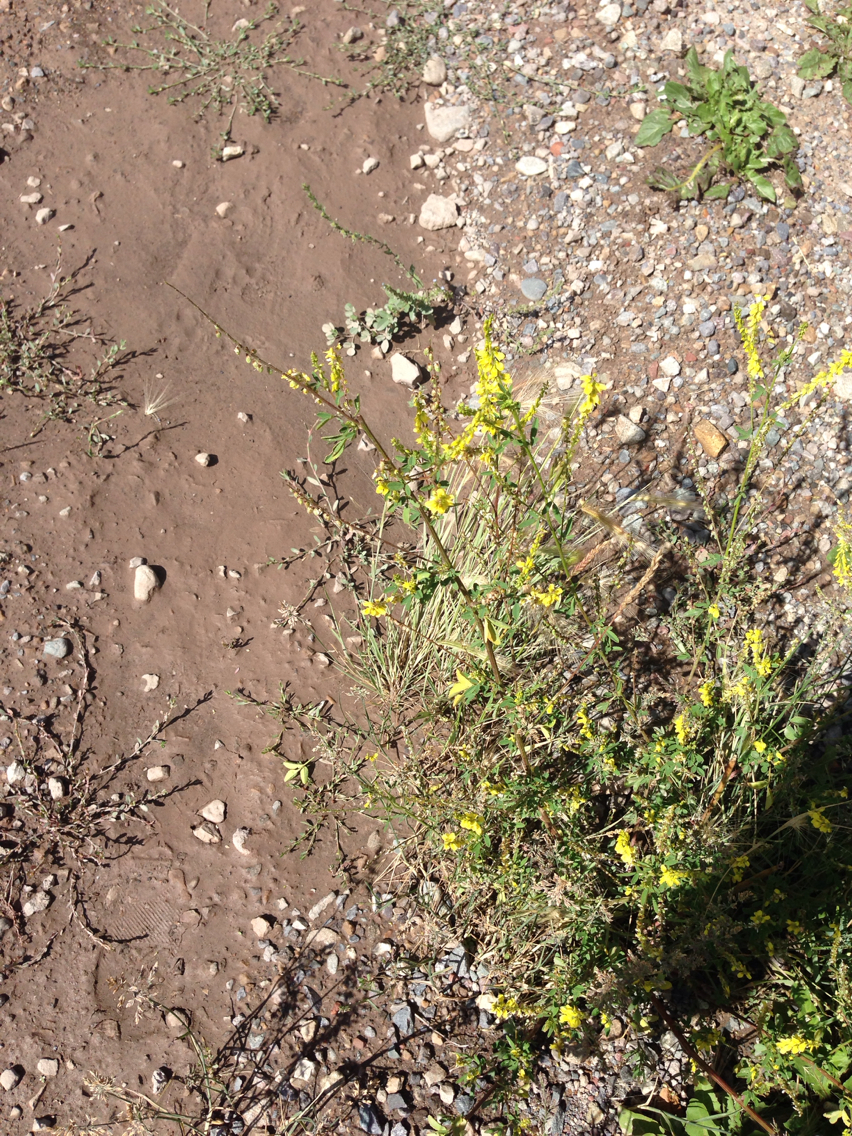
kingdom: Plantae
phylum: Tracheophyta
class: Magnoliopsida
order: Fabales
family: Fabaceae
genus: Melilotus
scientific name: Melilotus officinalis
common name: Sweetclover
